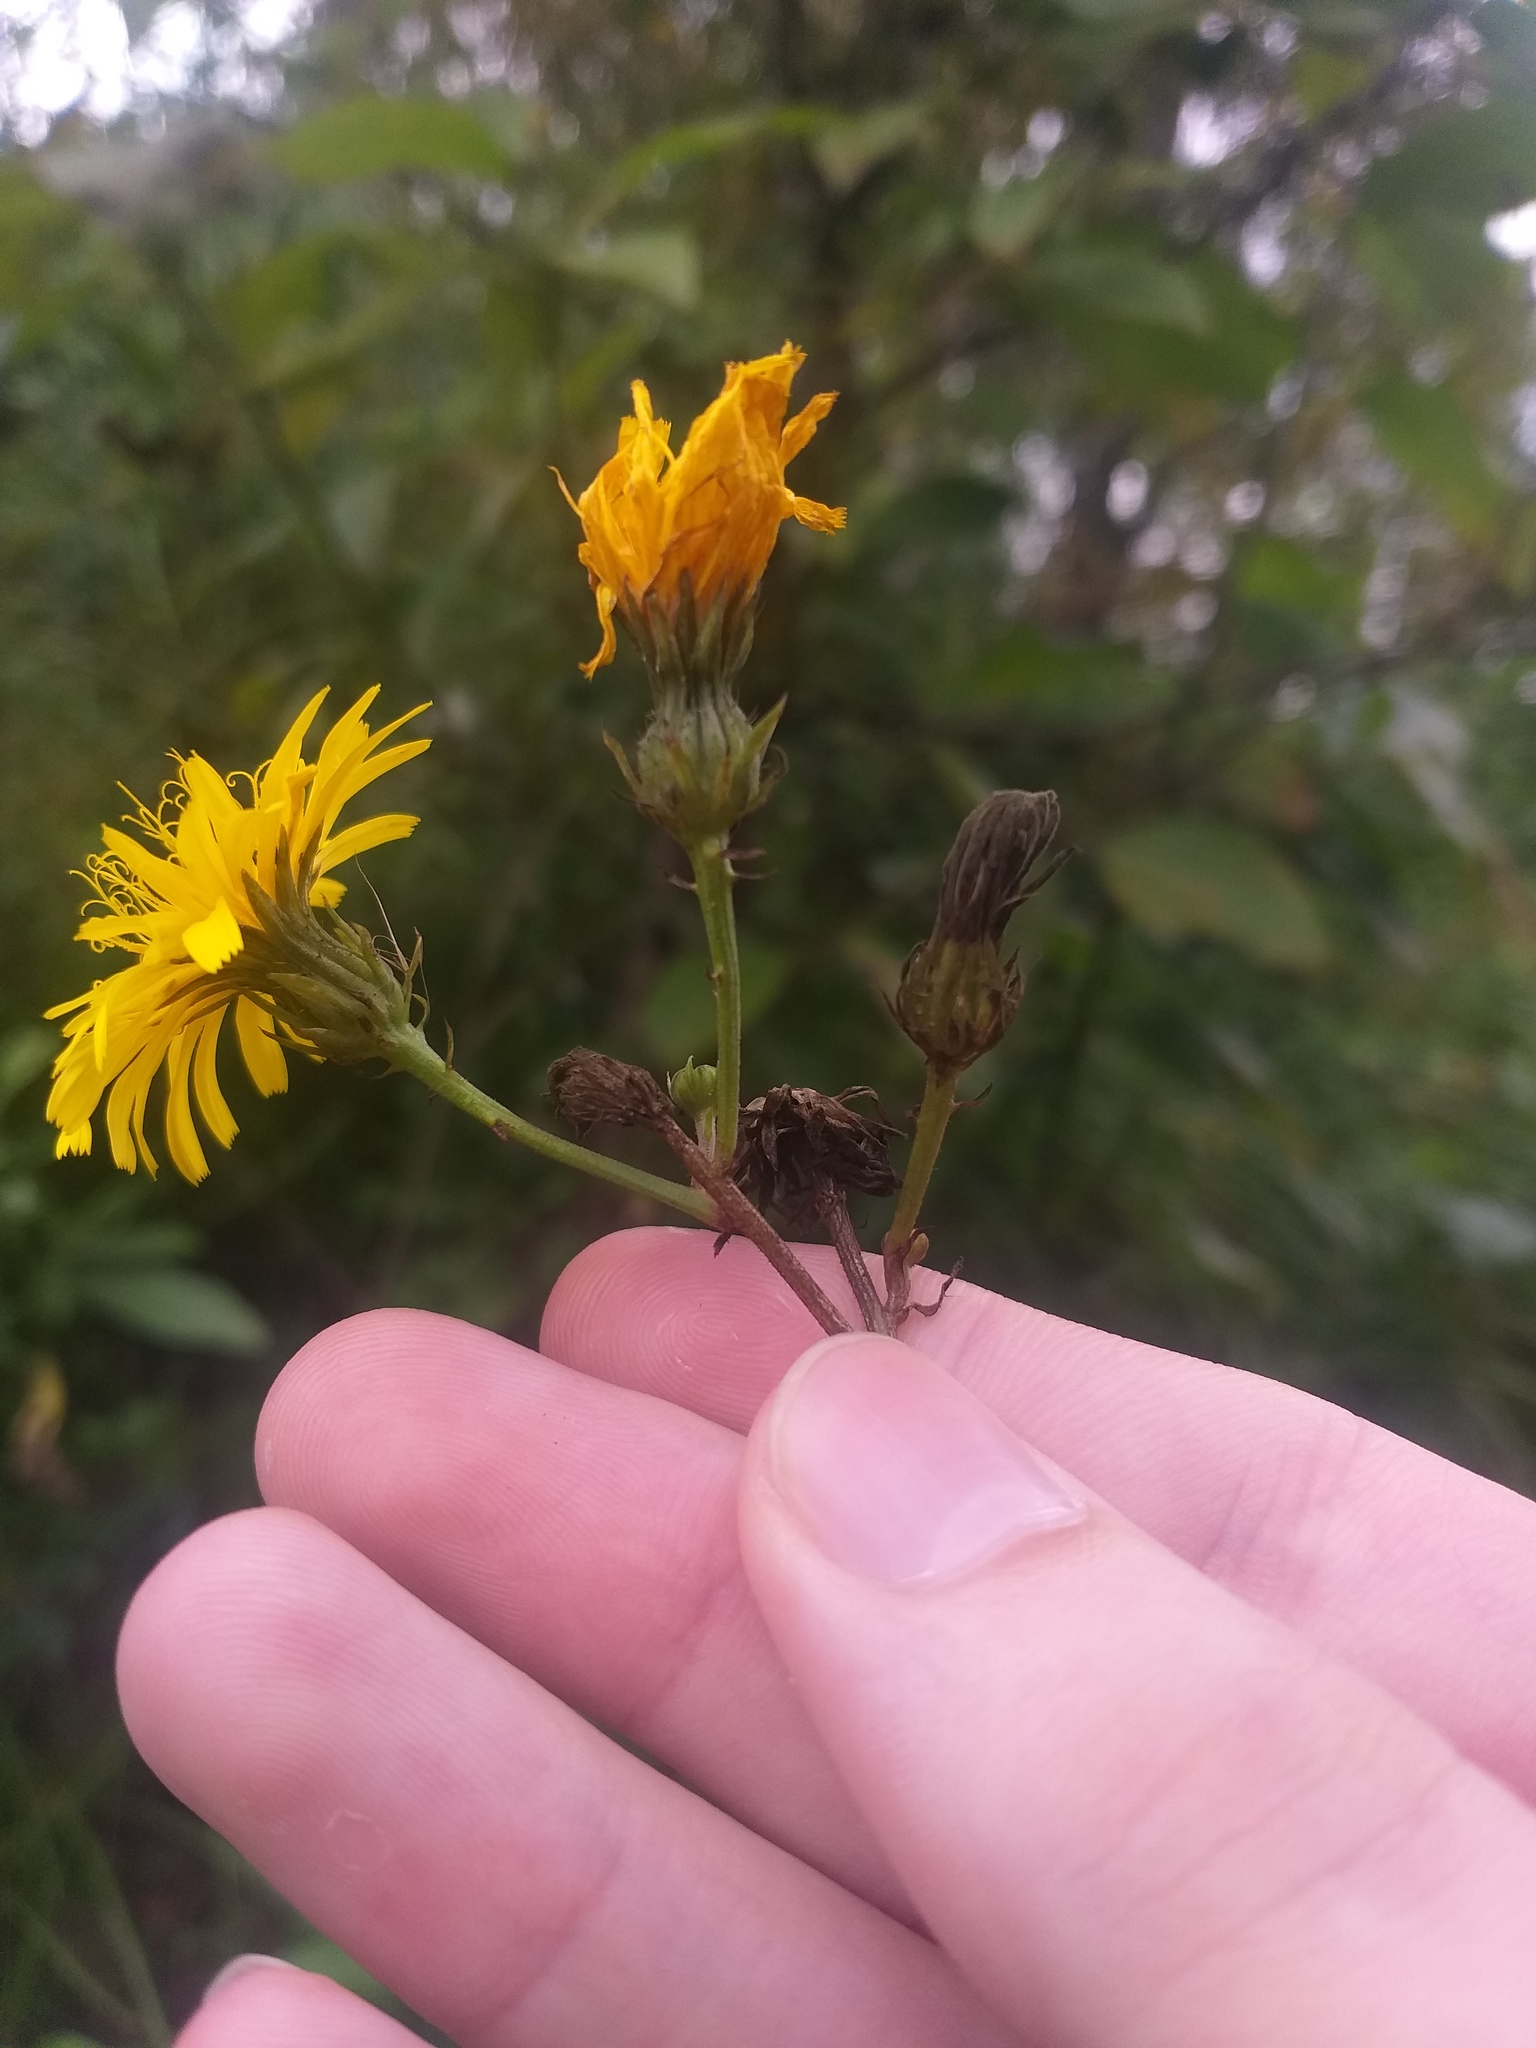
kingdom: Plantae
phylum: Tracheophyta
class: Magnoliopsida
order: Asterales
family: Asteraceae
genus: Picris
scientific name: Picris hieracioides
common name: Hawkweed oxtongue
